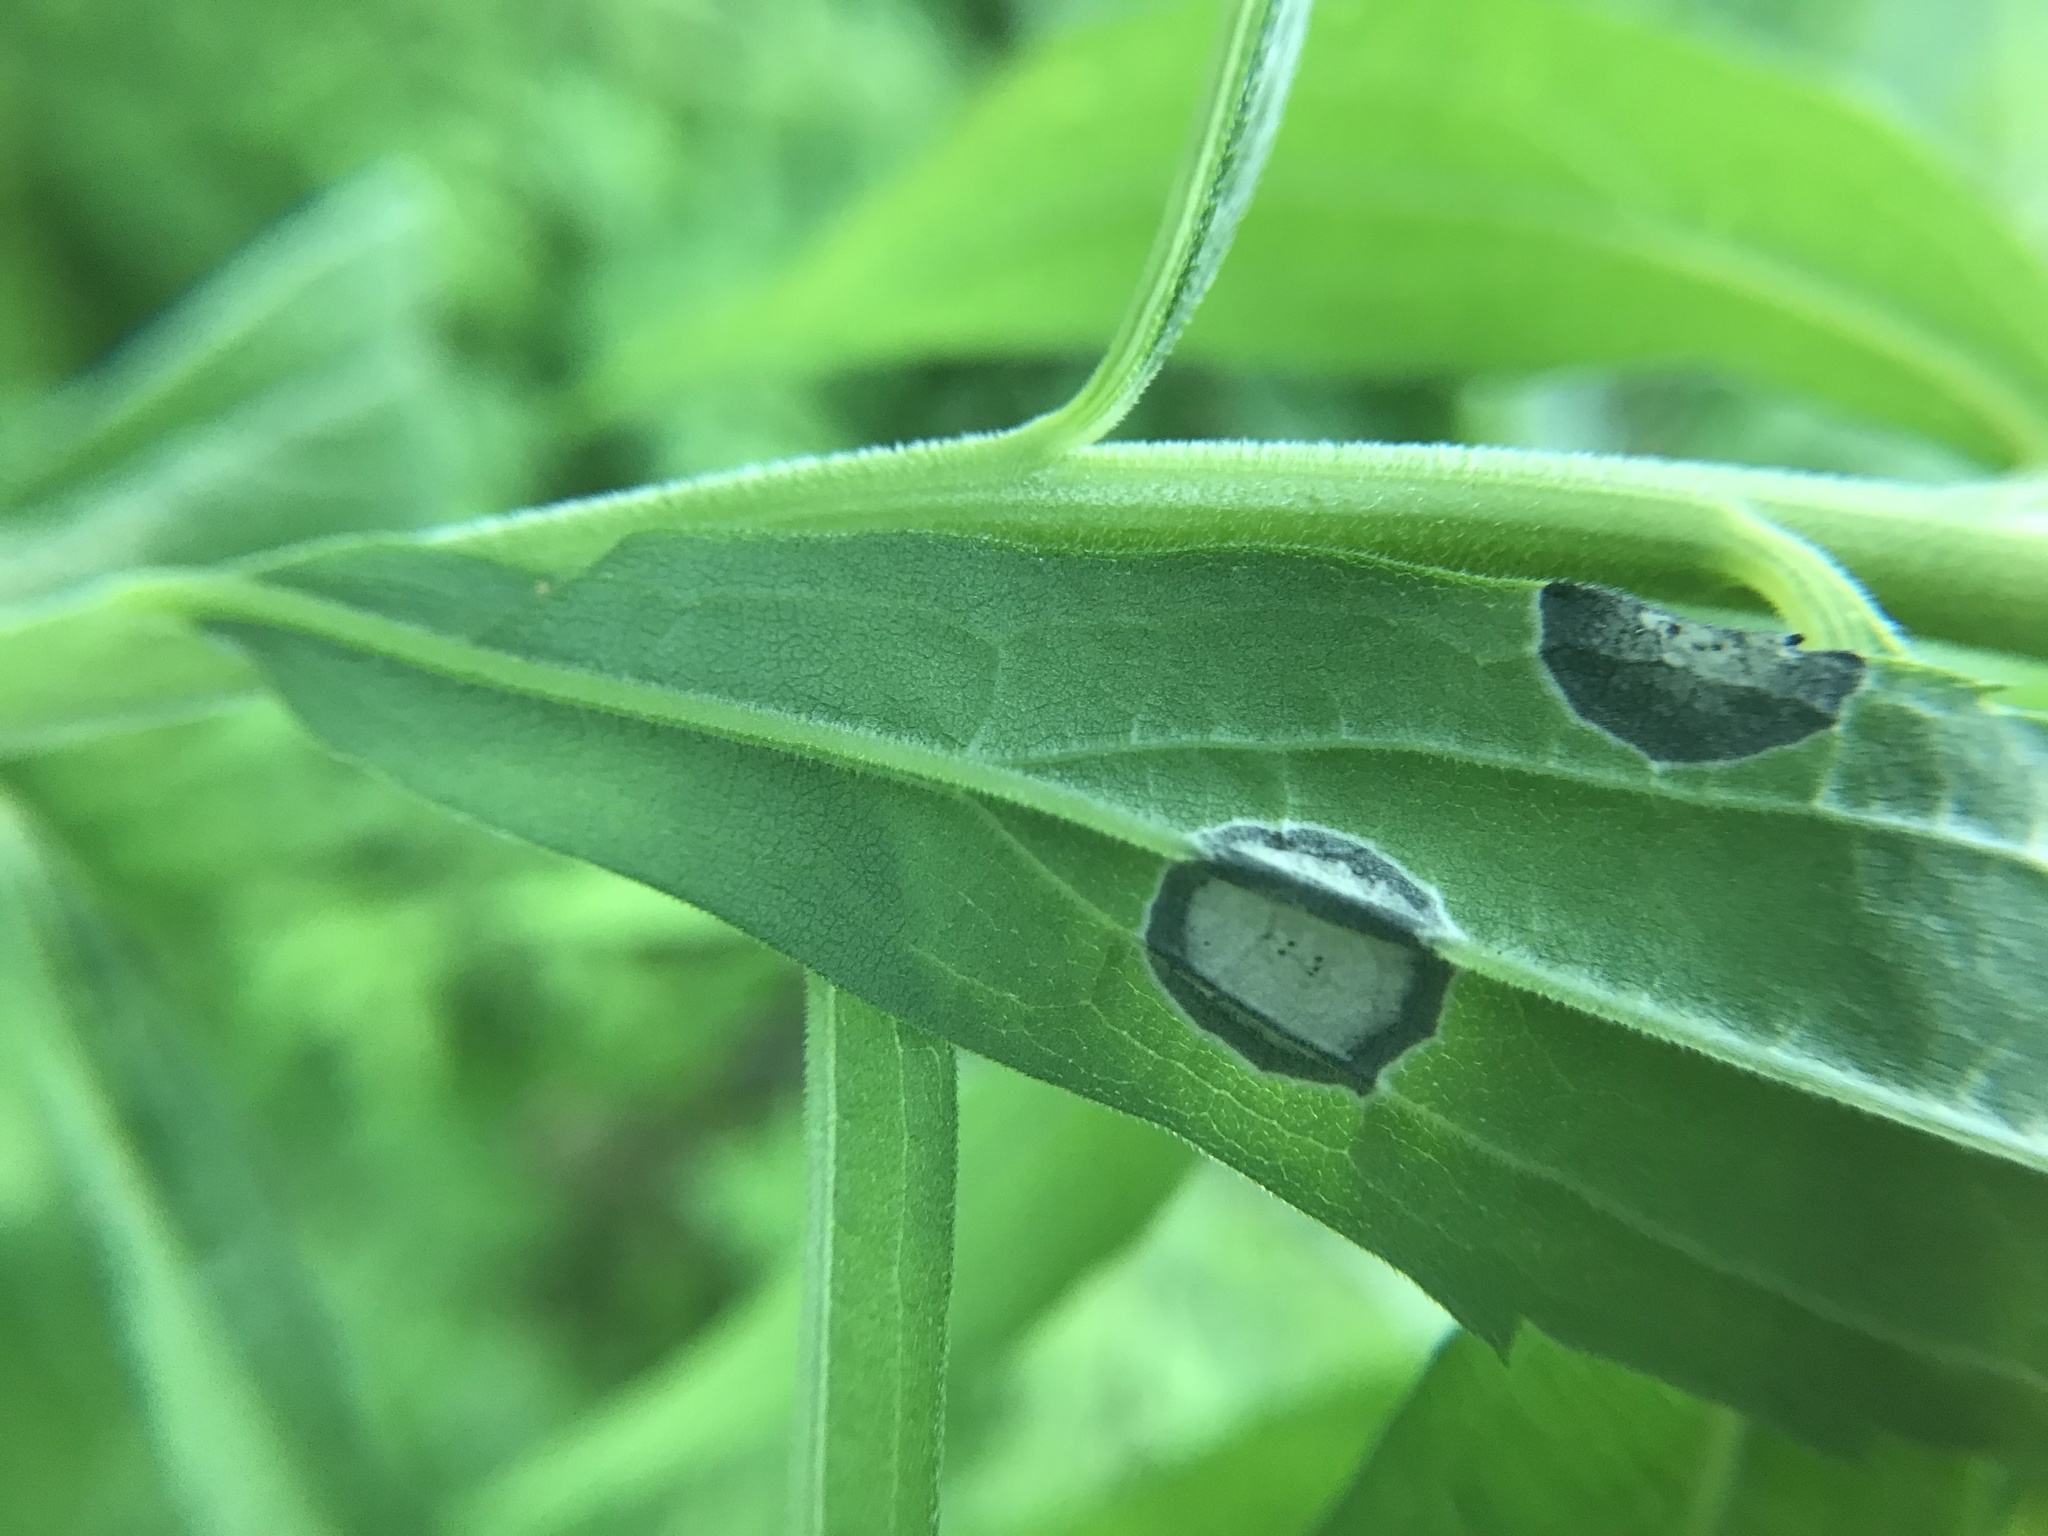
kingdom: Animalia
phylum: Arthropoda
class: Insecta
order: Diptera
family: Cecidomyiidae
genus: Asteromyia
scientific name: Asteromyia carbonifera
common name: Carbonifera goldenrod gall midge
